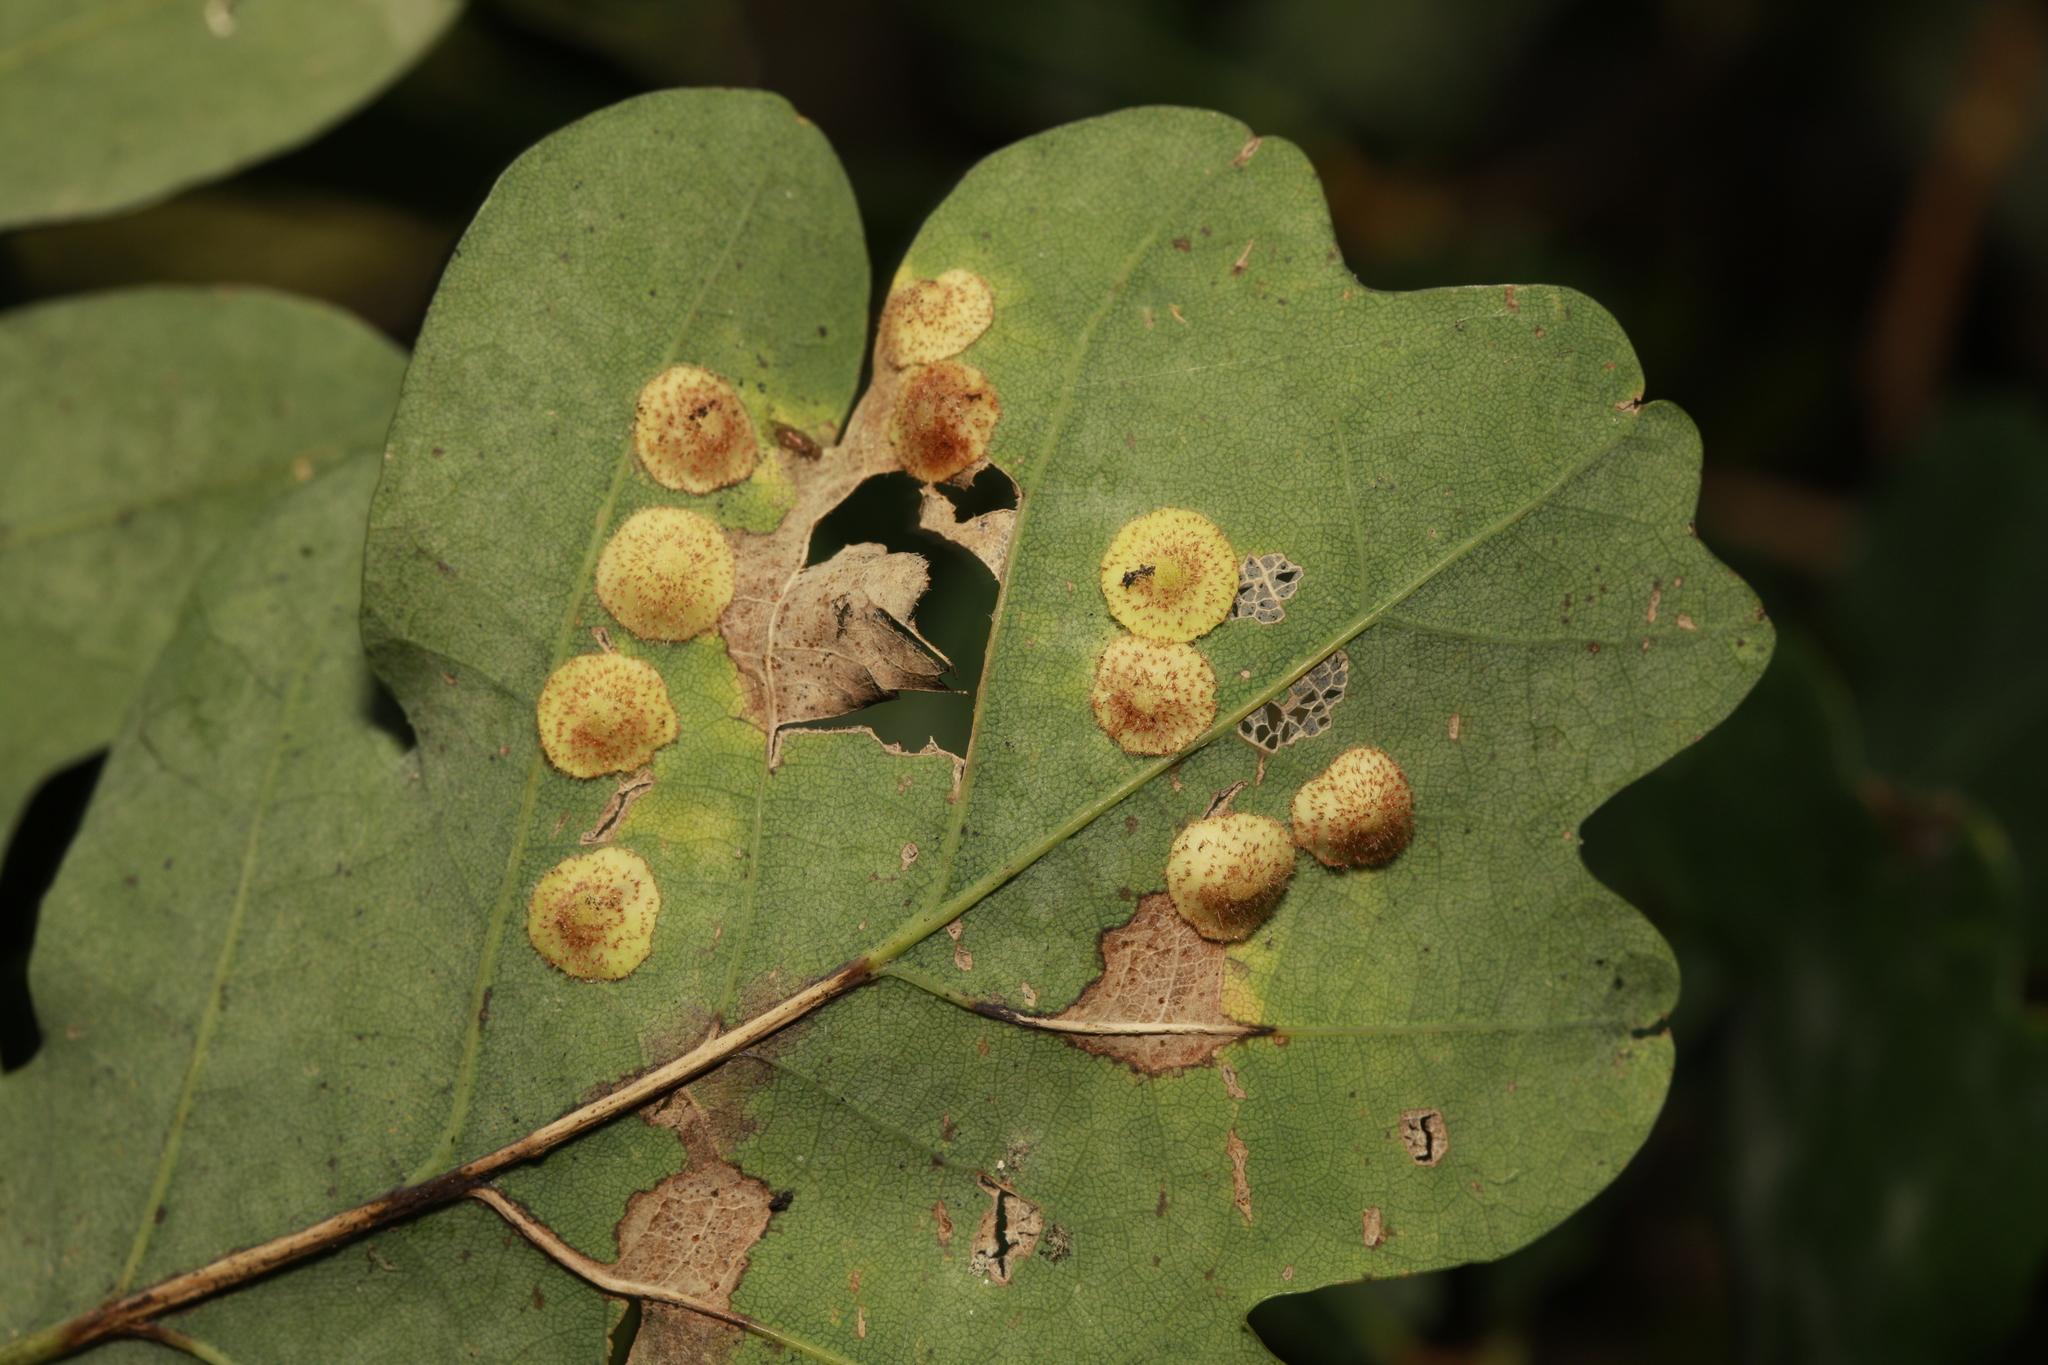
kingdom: Animalia
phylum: Arthropoda
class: Insecta
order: Hymenoptera
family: Cynipidae
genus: Neuroterus
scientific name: Neuroterus quercusbaccarum
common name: Common spangle gall
